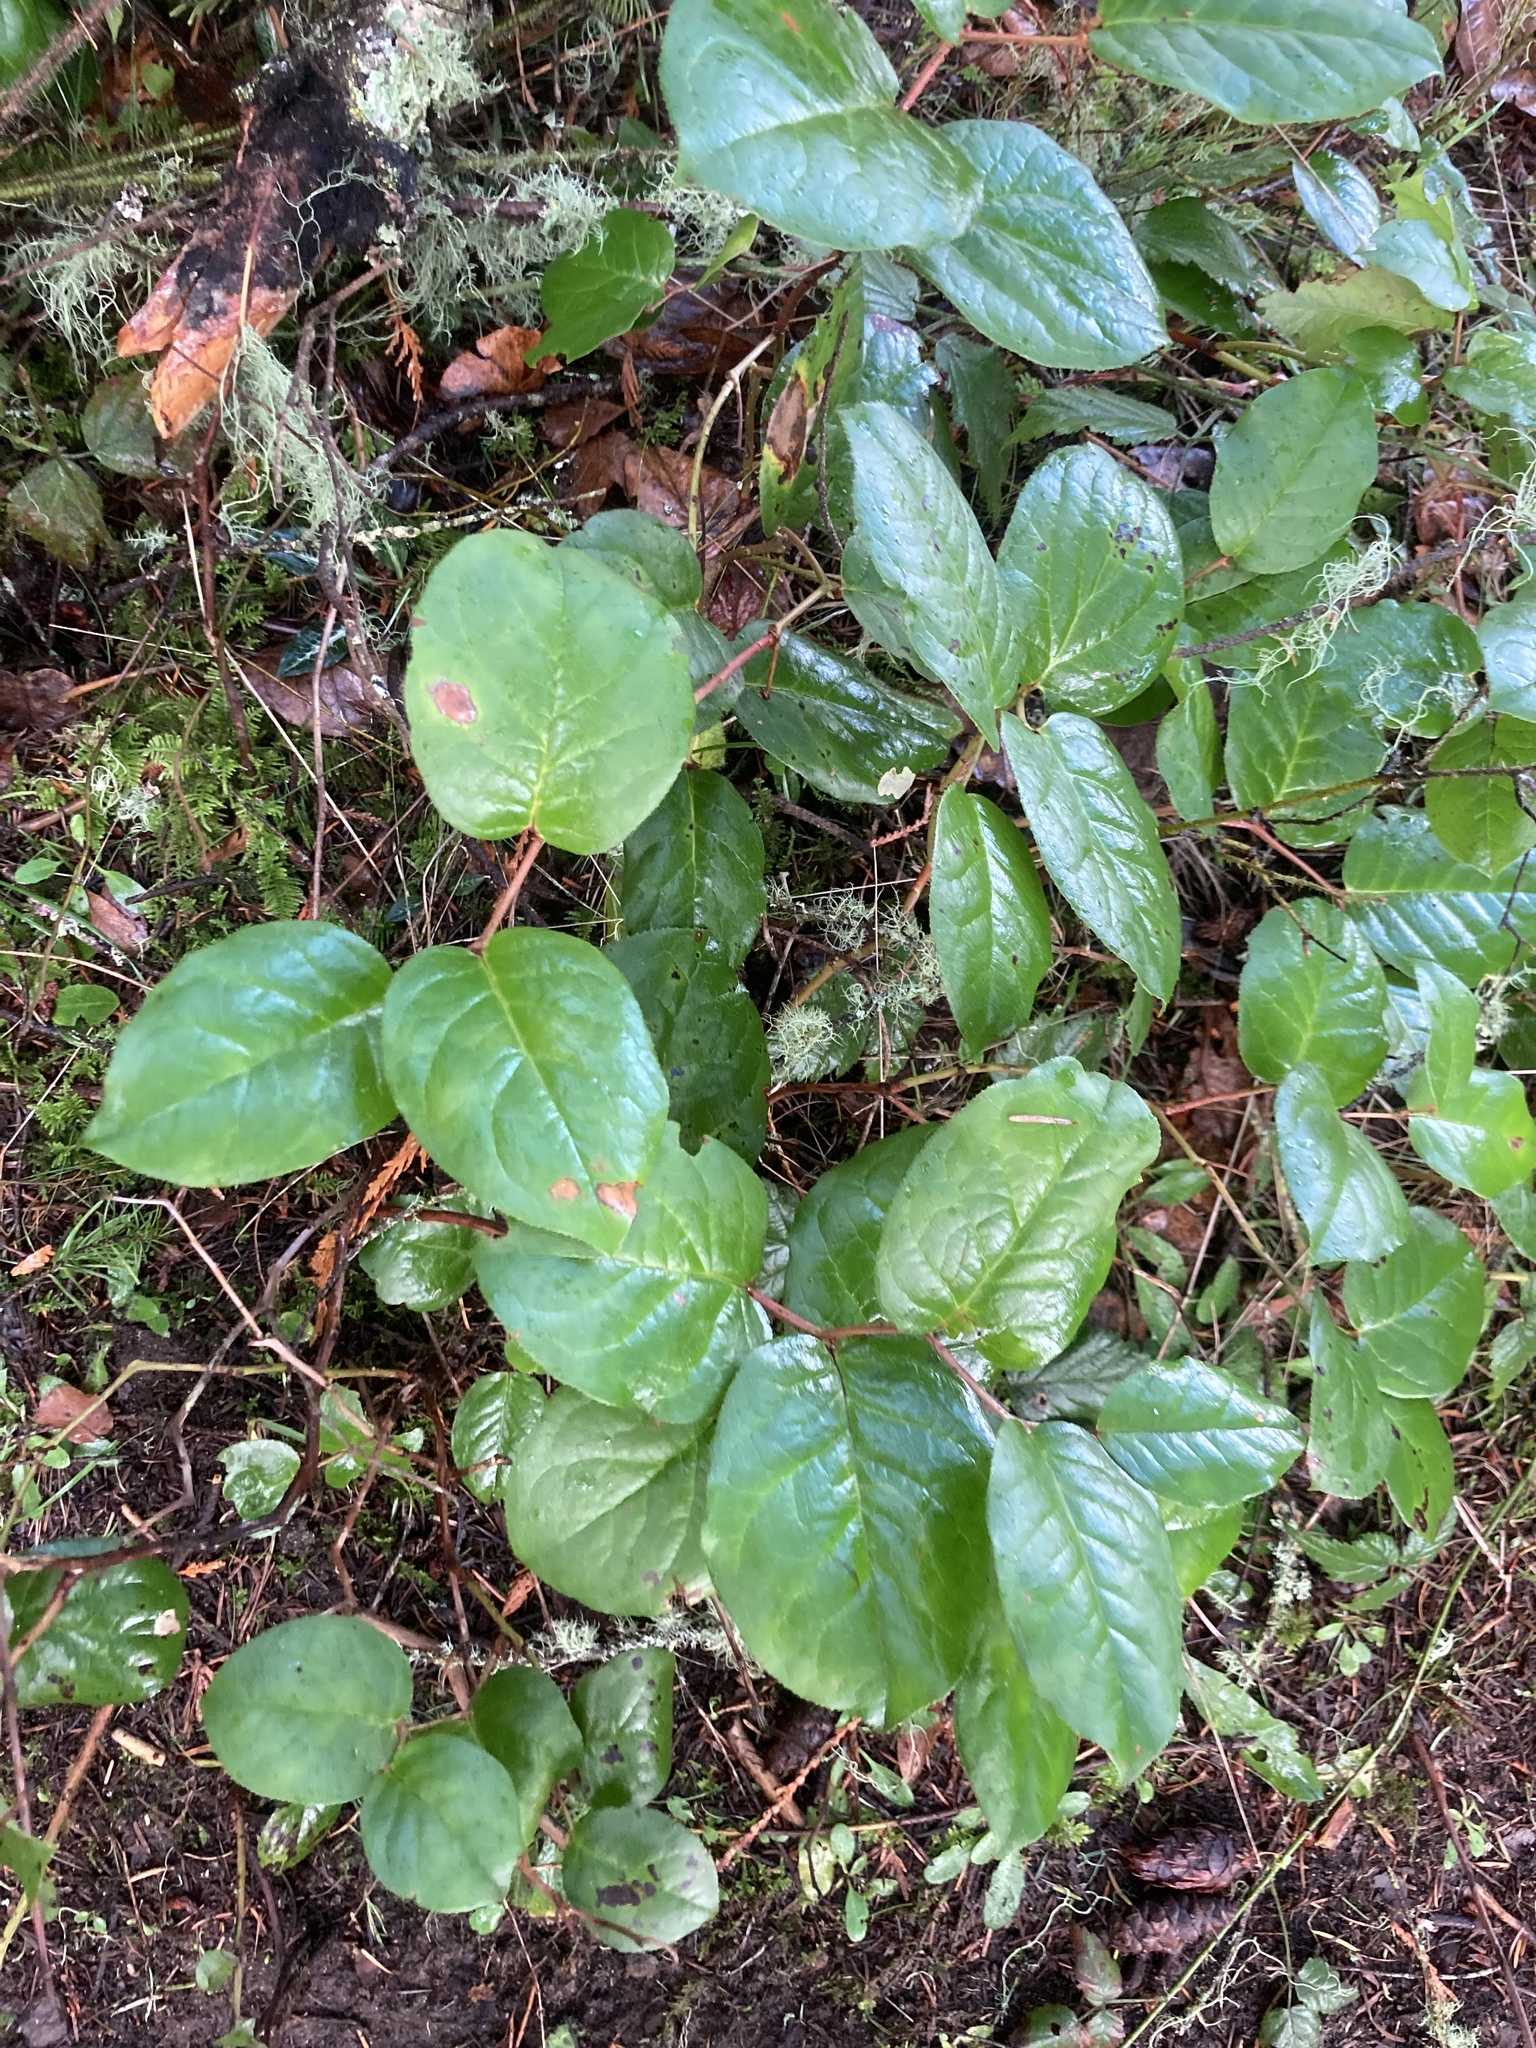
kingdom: Plantae
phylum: Tracheophyta
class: Magnoliopsida
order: Ericales
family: Ericaceae
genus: Gaultheria
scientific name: Gaultheria shallon
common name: Shallon
